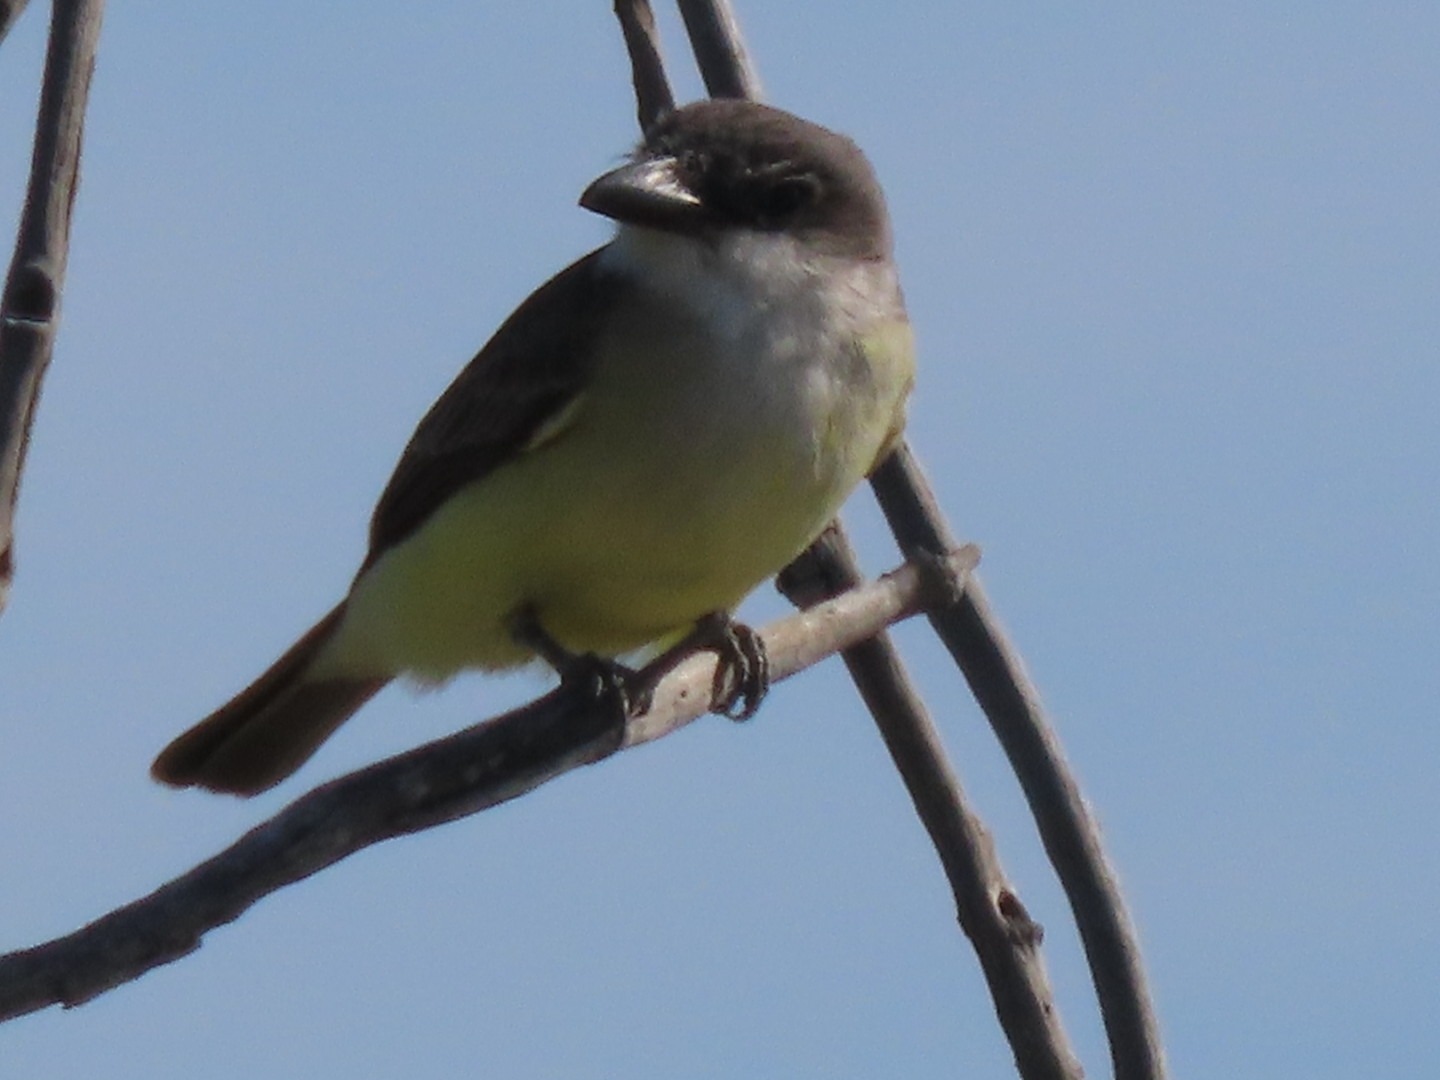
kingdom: Animalia
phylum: Chordata
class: Aves
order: Passeriformes
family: Tyrannidae
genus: Tyrannus
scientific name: Tyrannus crassirostris
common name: Thick-billed kingbird
